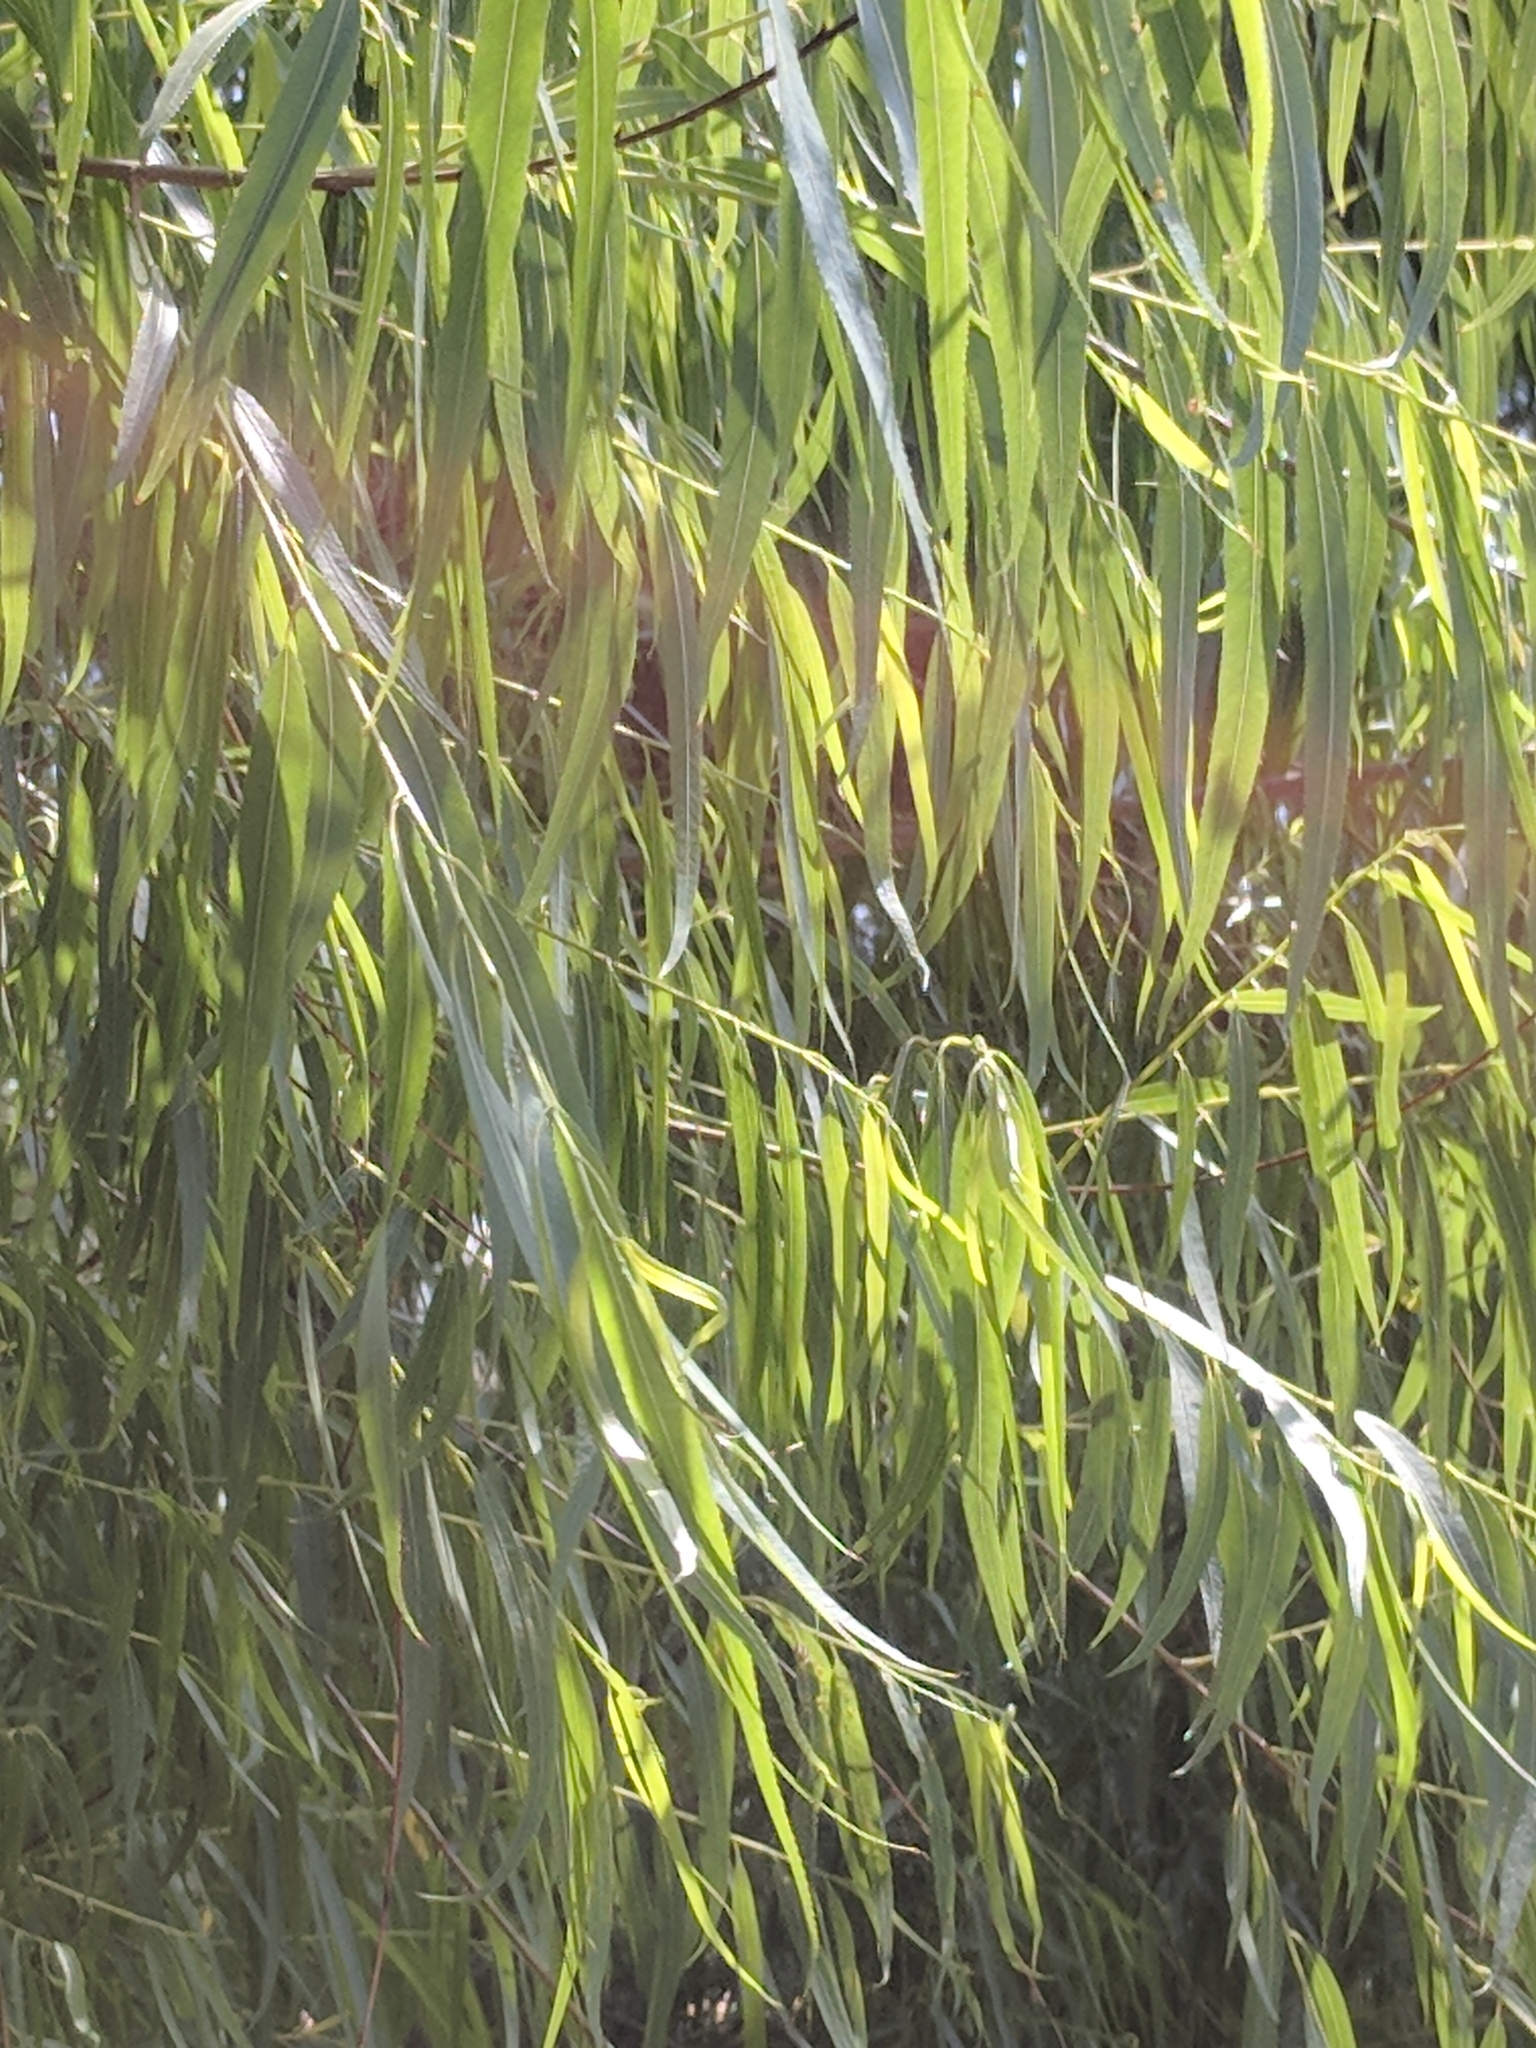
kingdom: Plantae
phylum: Tracheophyta
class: Magnoliopsida
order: Malpighiales
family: Salicaceae
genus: Salix
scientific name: Salix nigra
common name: Black willow
